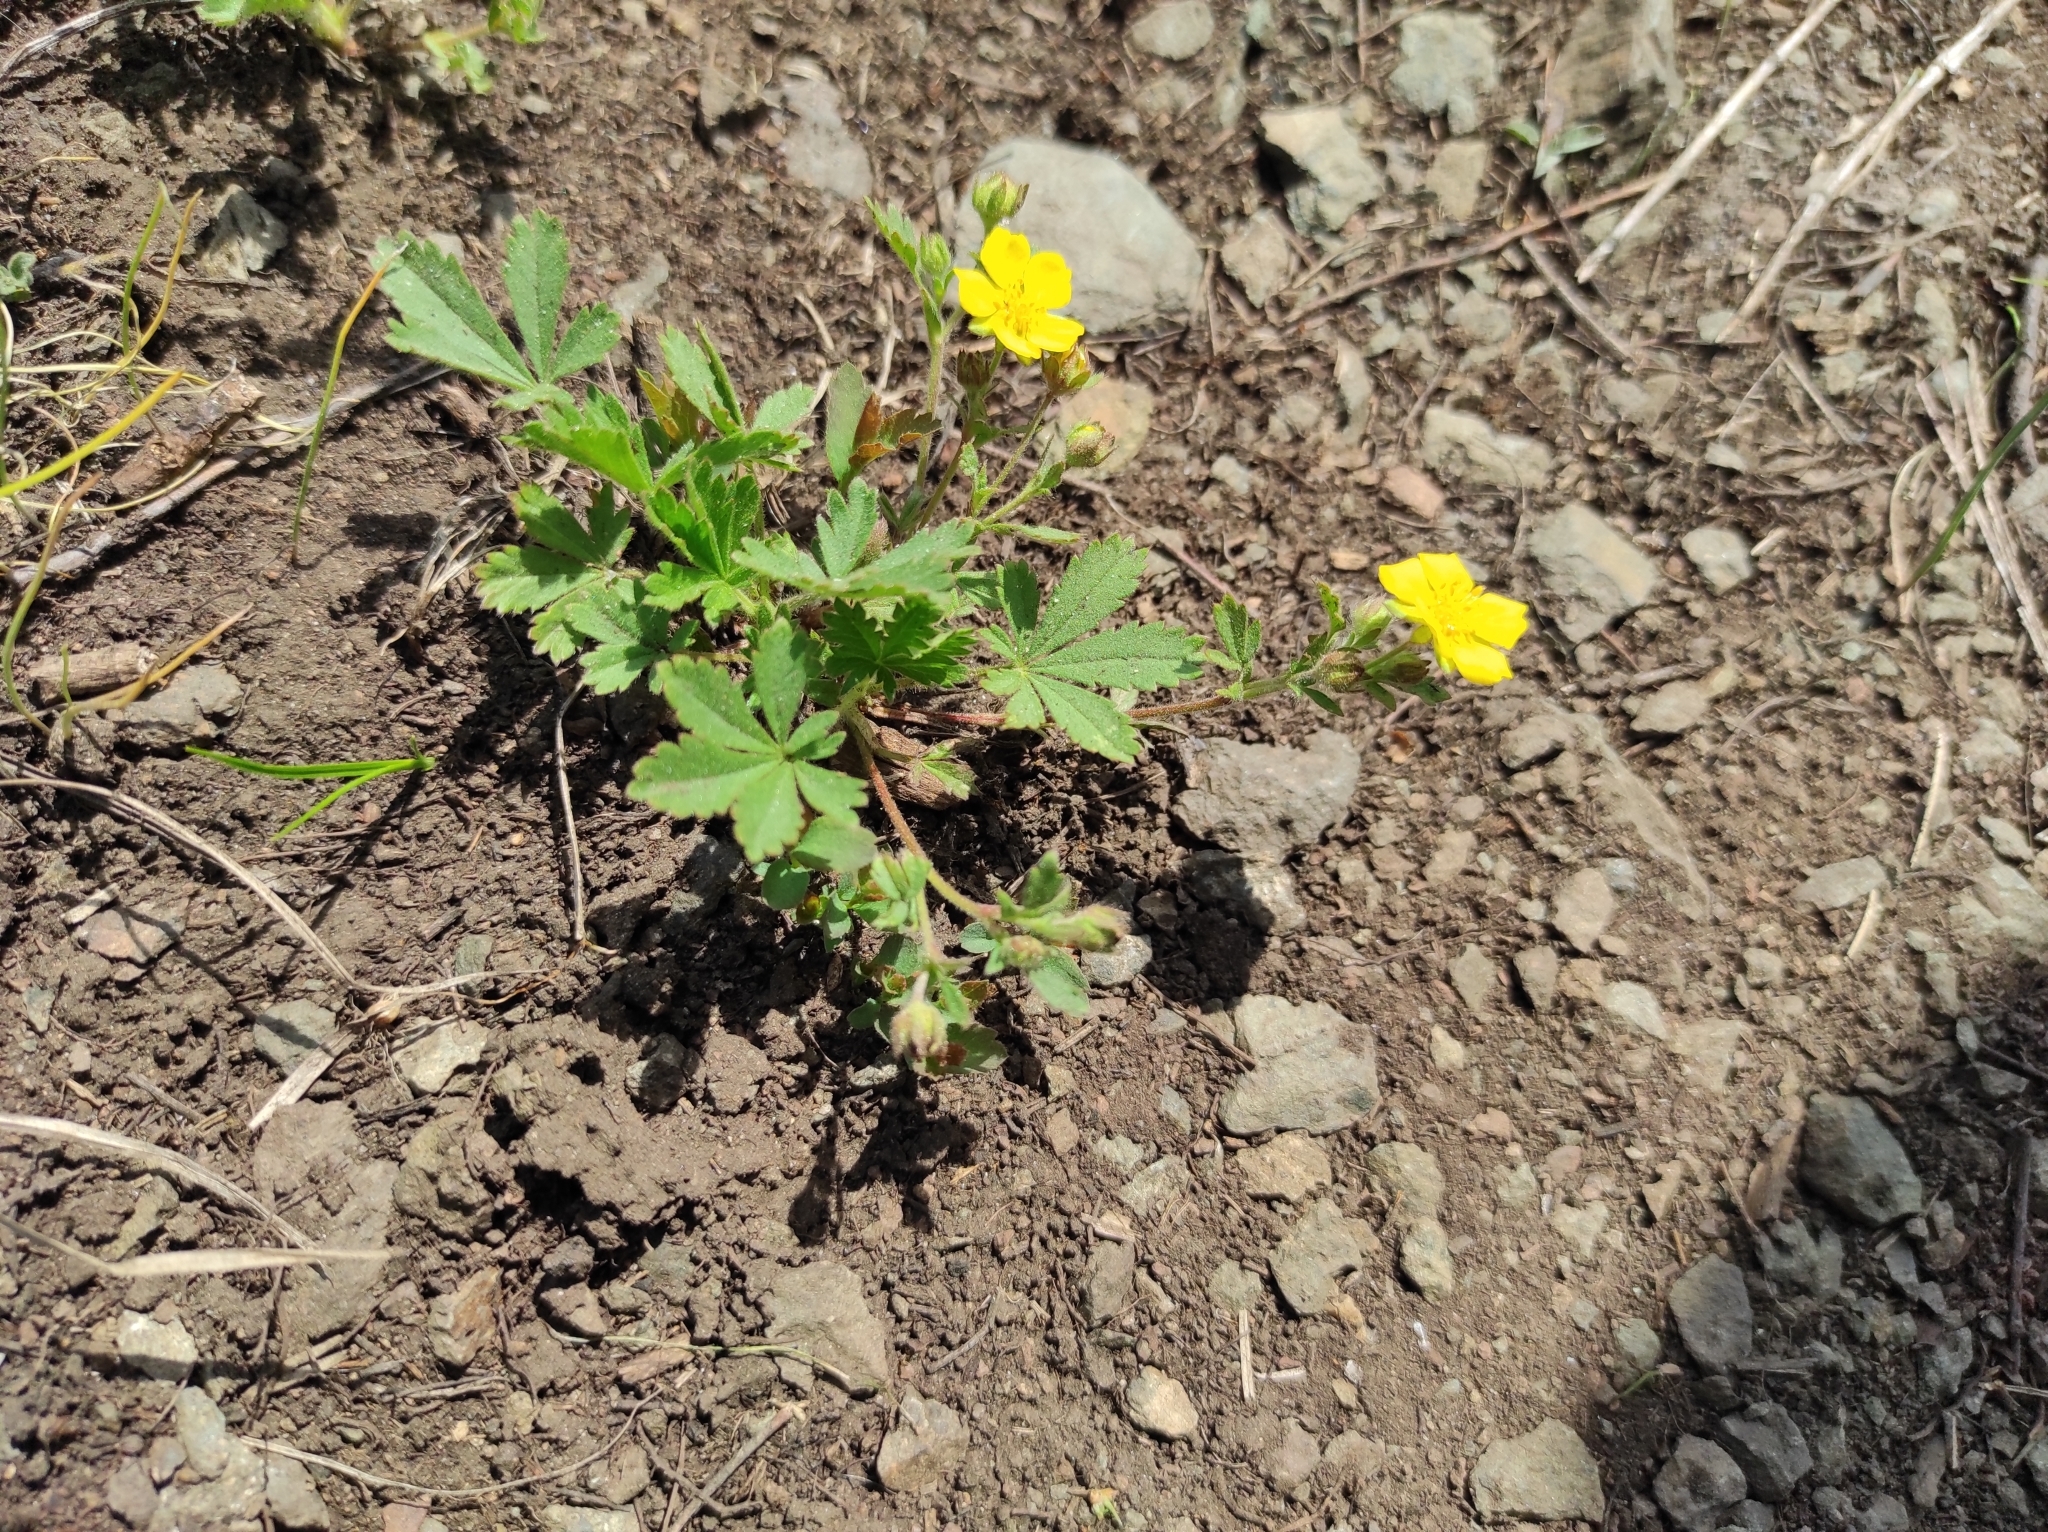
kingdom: Plantae
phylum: Tracheophyta
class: Magnoliopsida
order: Rosales
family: Rosaceae
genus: Potentilla
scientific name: Potentilla humifusa
